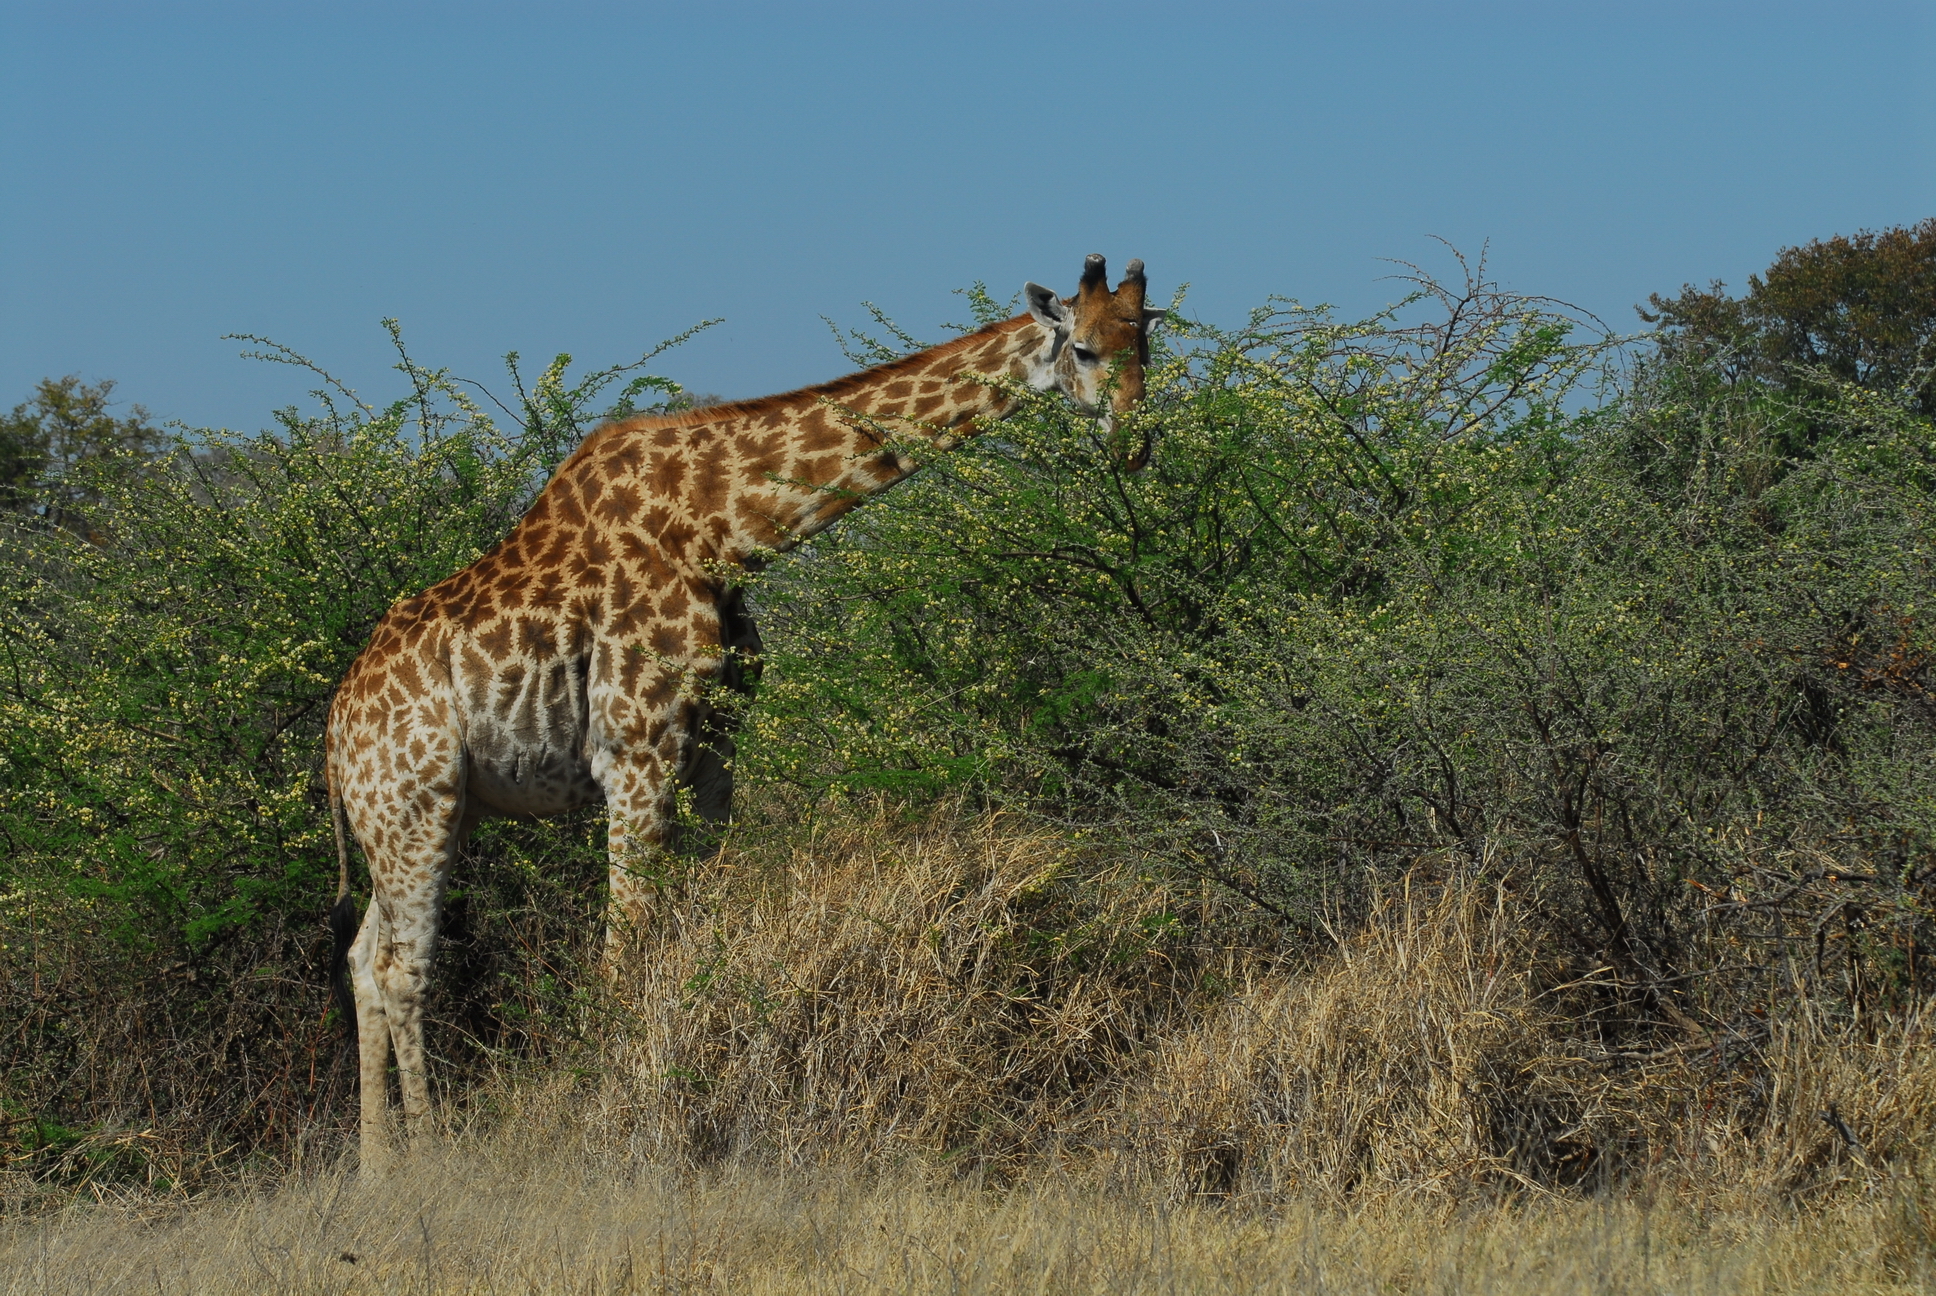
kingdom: Animalia
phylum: Chordata
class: Mammalia
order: Artiodactyla
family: Giraffidae
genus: Giraffa
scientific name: Giraffa giraffa
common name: Southern giraffe
